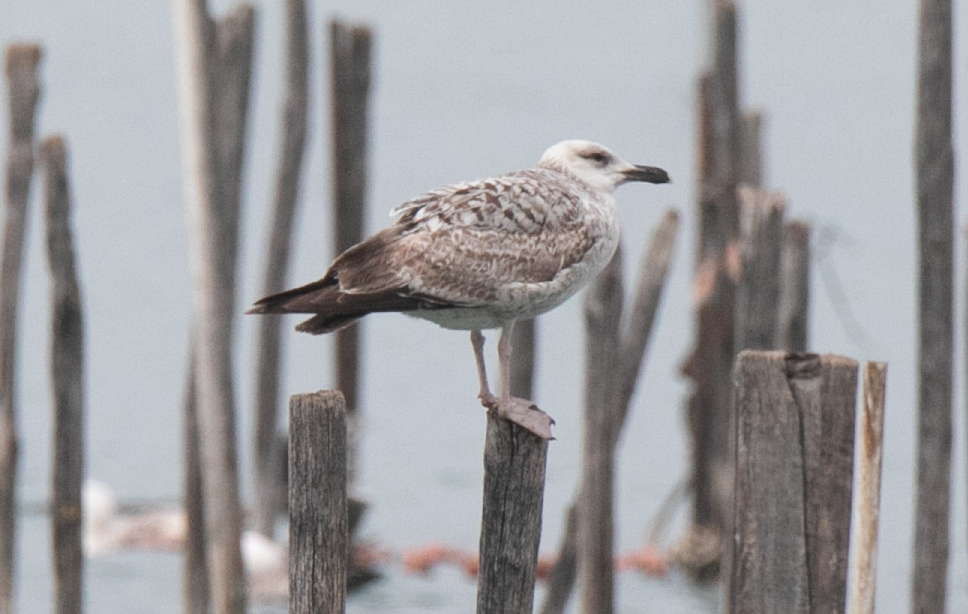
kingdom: Animalia
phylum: Chordata
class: Aves
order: Charadriiformes
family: Laridae
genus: Larus
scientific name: Larus michahellis
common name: Yellow-legged gull
